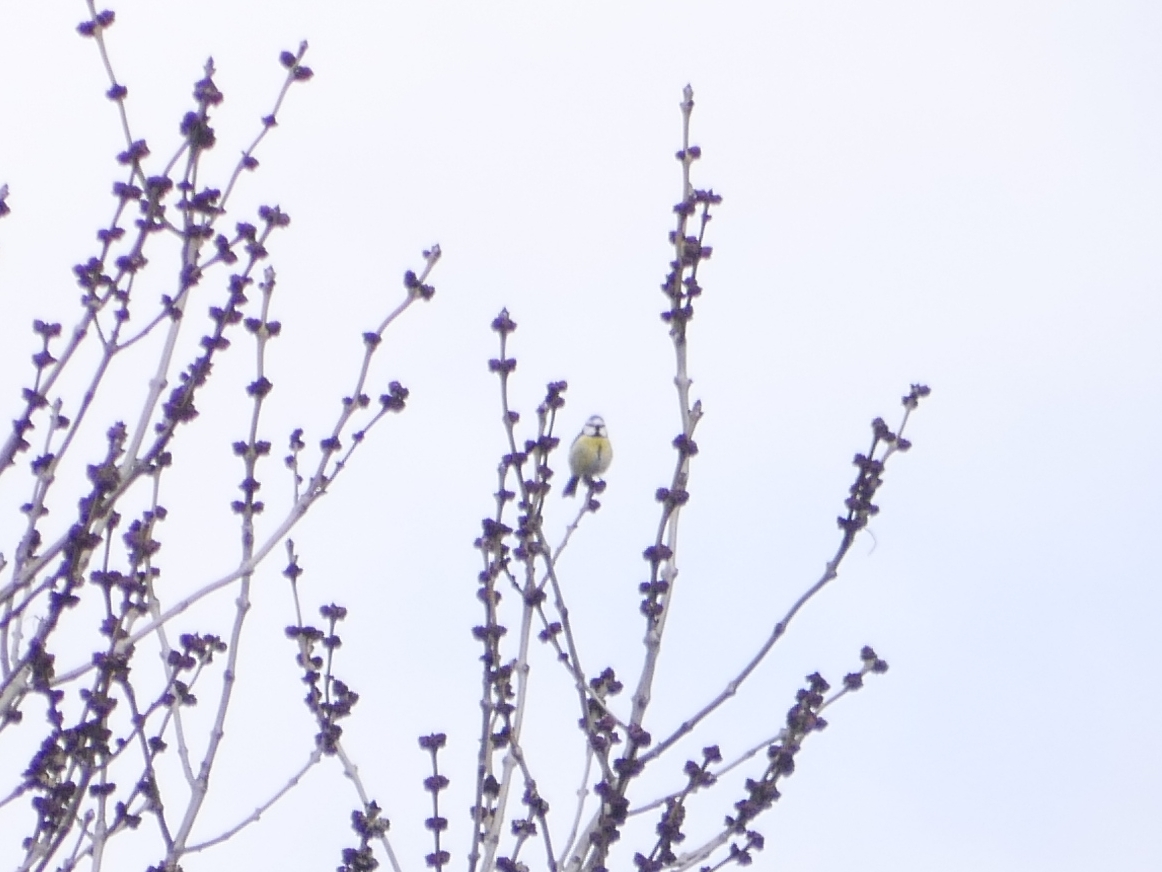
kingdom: Animalia
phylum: Chordata
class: Aves
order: Passeriformes
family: Paridae
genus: Cyanistes
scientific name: Cyanistes caeruleus
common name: Eurasian blue tit
